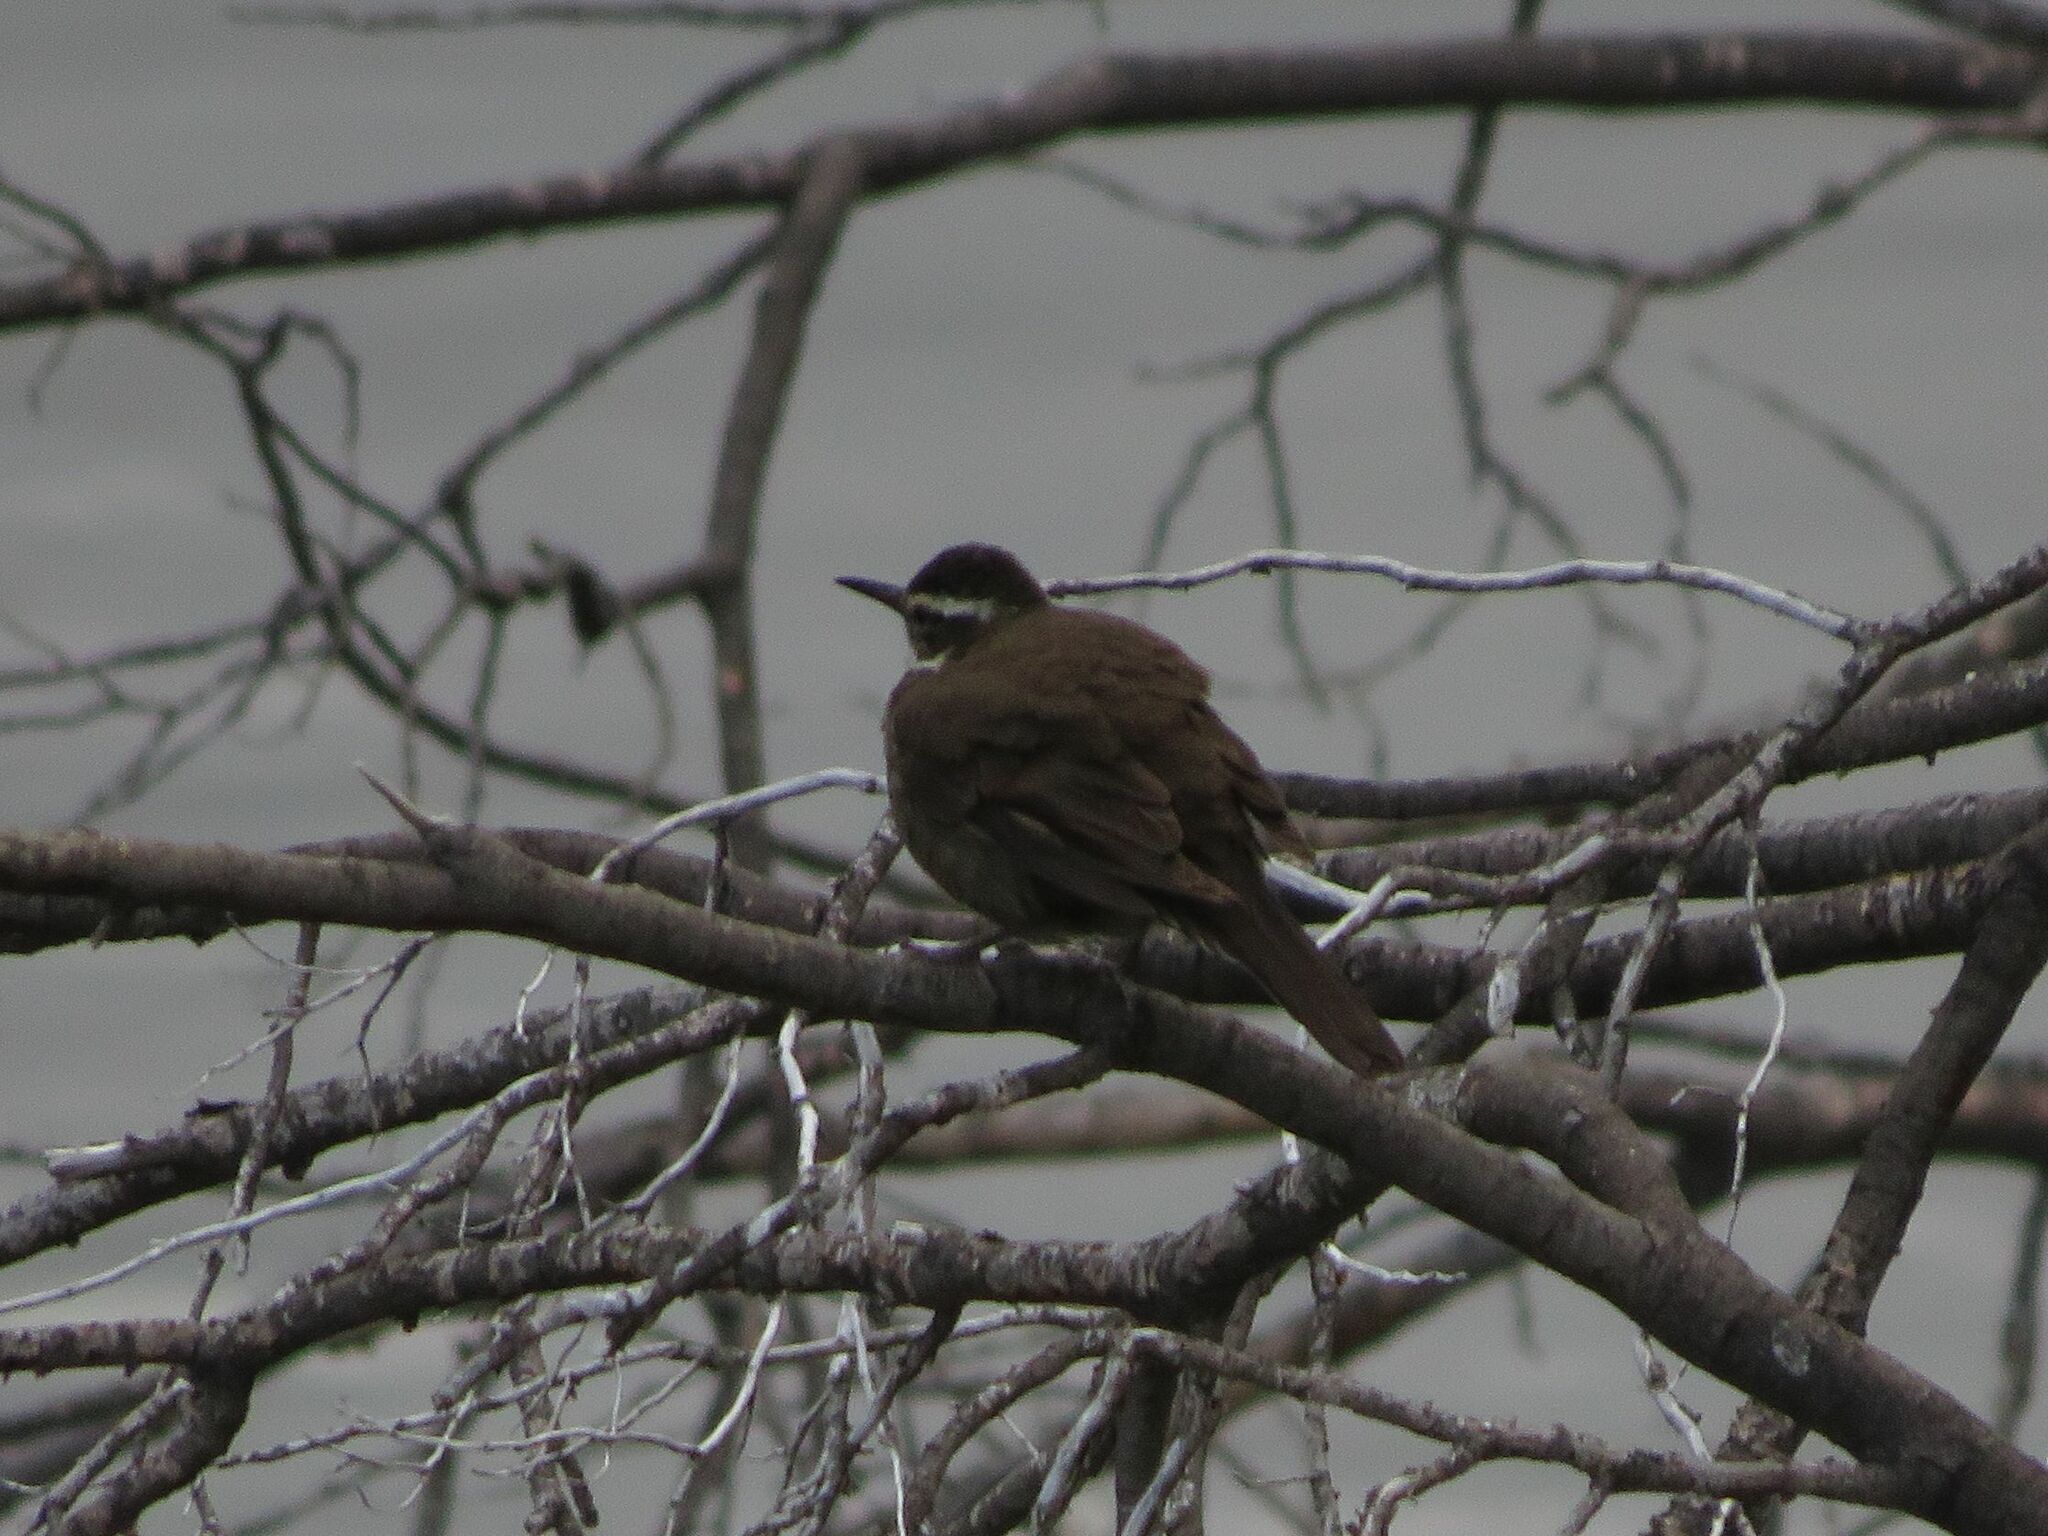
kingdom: Animalia
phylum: Chordata
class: Aves
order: Passeriformes
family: Furnariidae
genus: Cinclodes
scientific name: Cinclodes patagonicus
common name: Dark-bellied cinclodes
